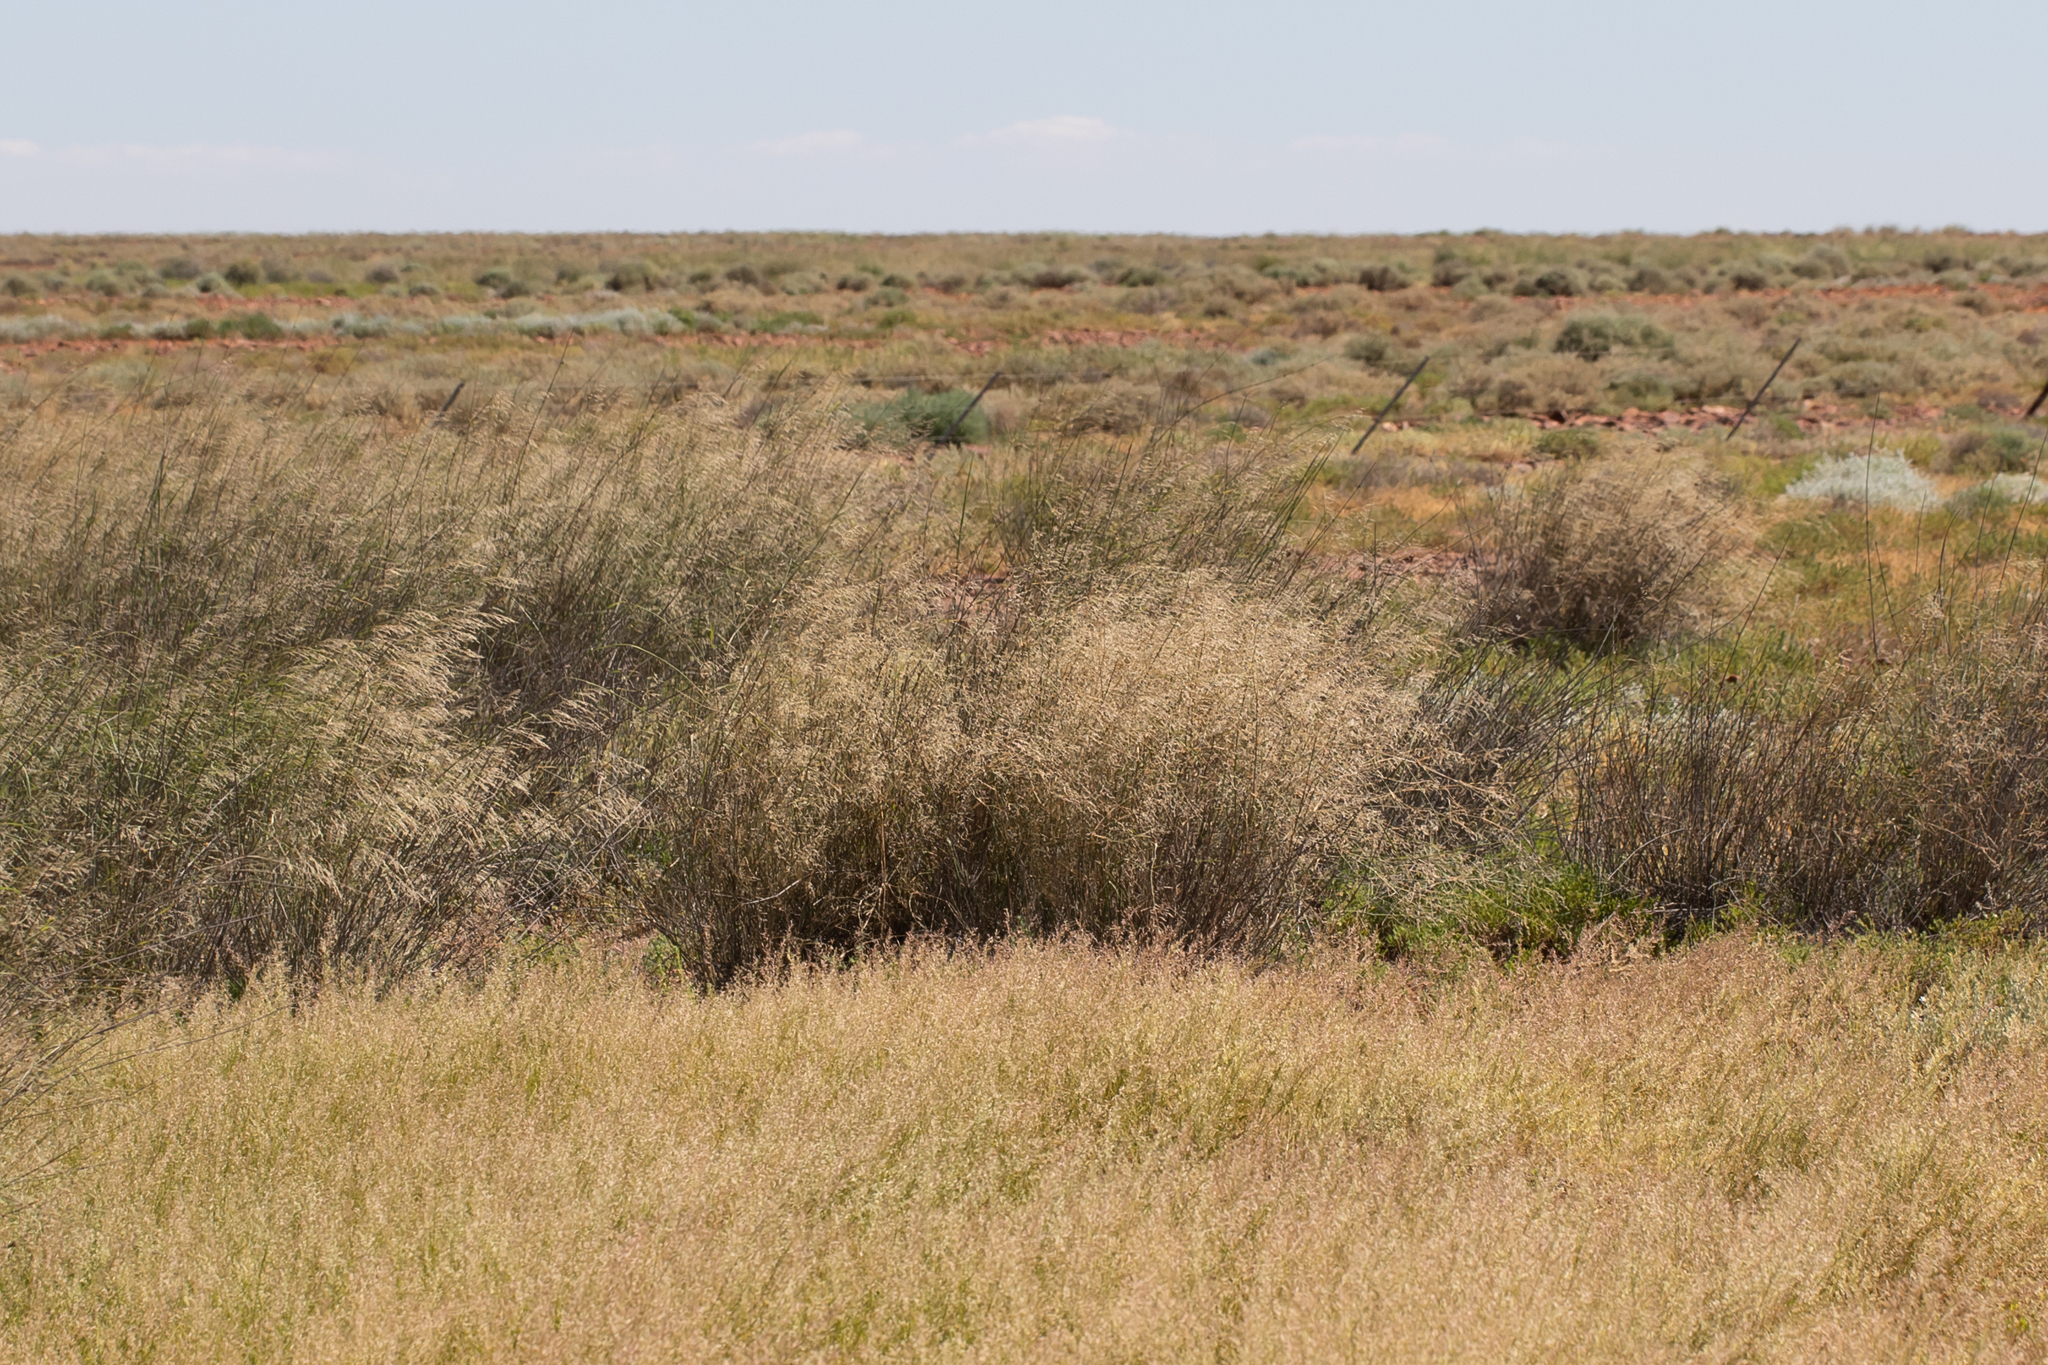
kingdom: Plantae
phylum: Tracheophyta
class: Liliopsida
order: Poales
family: Poaceae
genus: Sporobolus
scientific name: Sporobolus ramigerus
